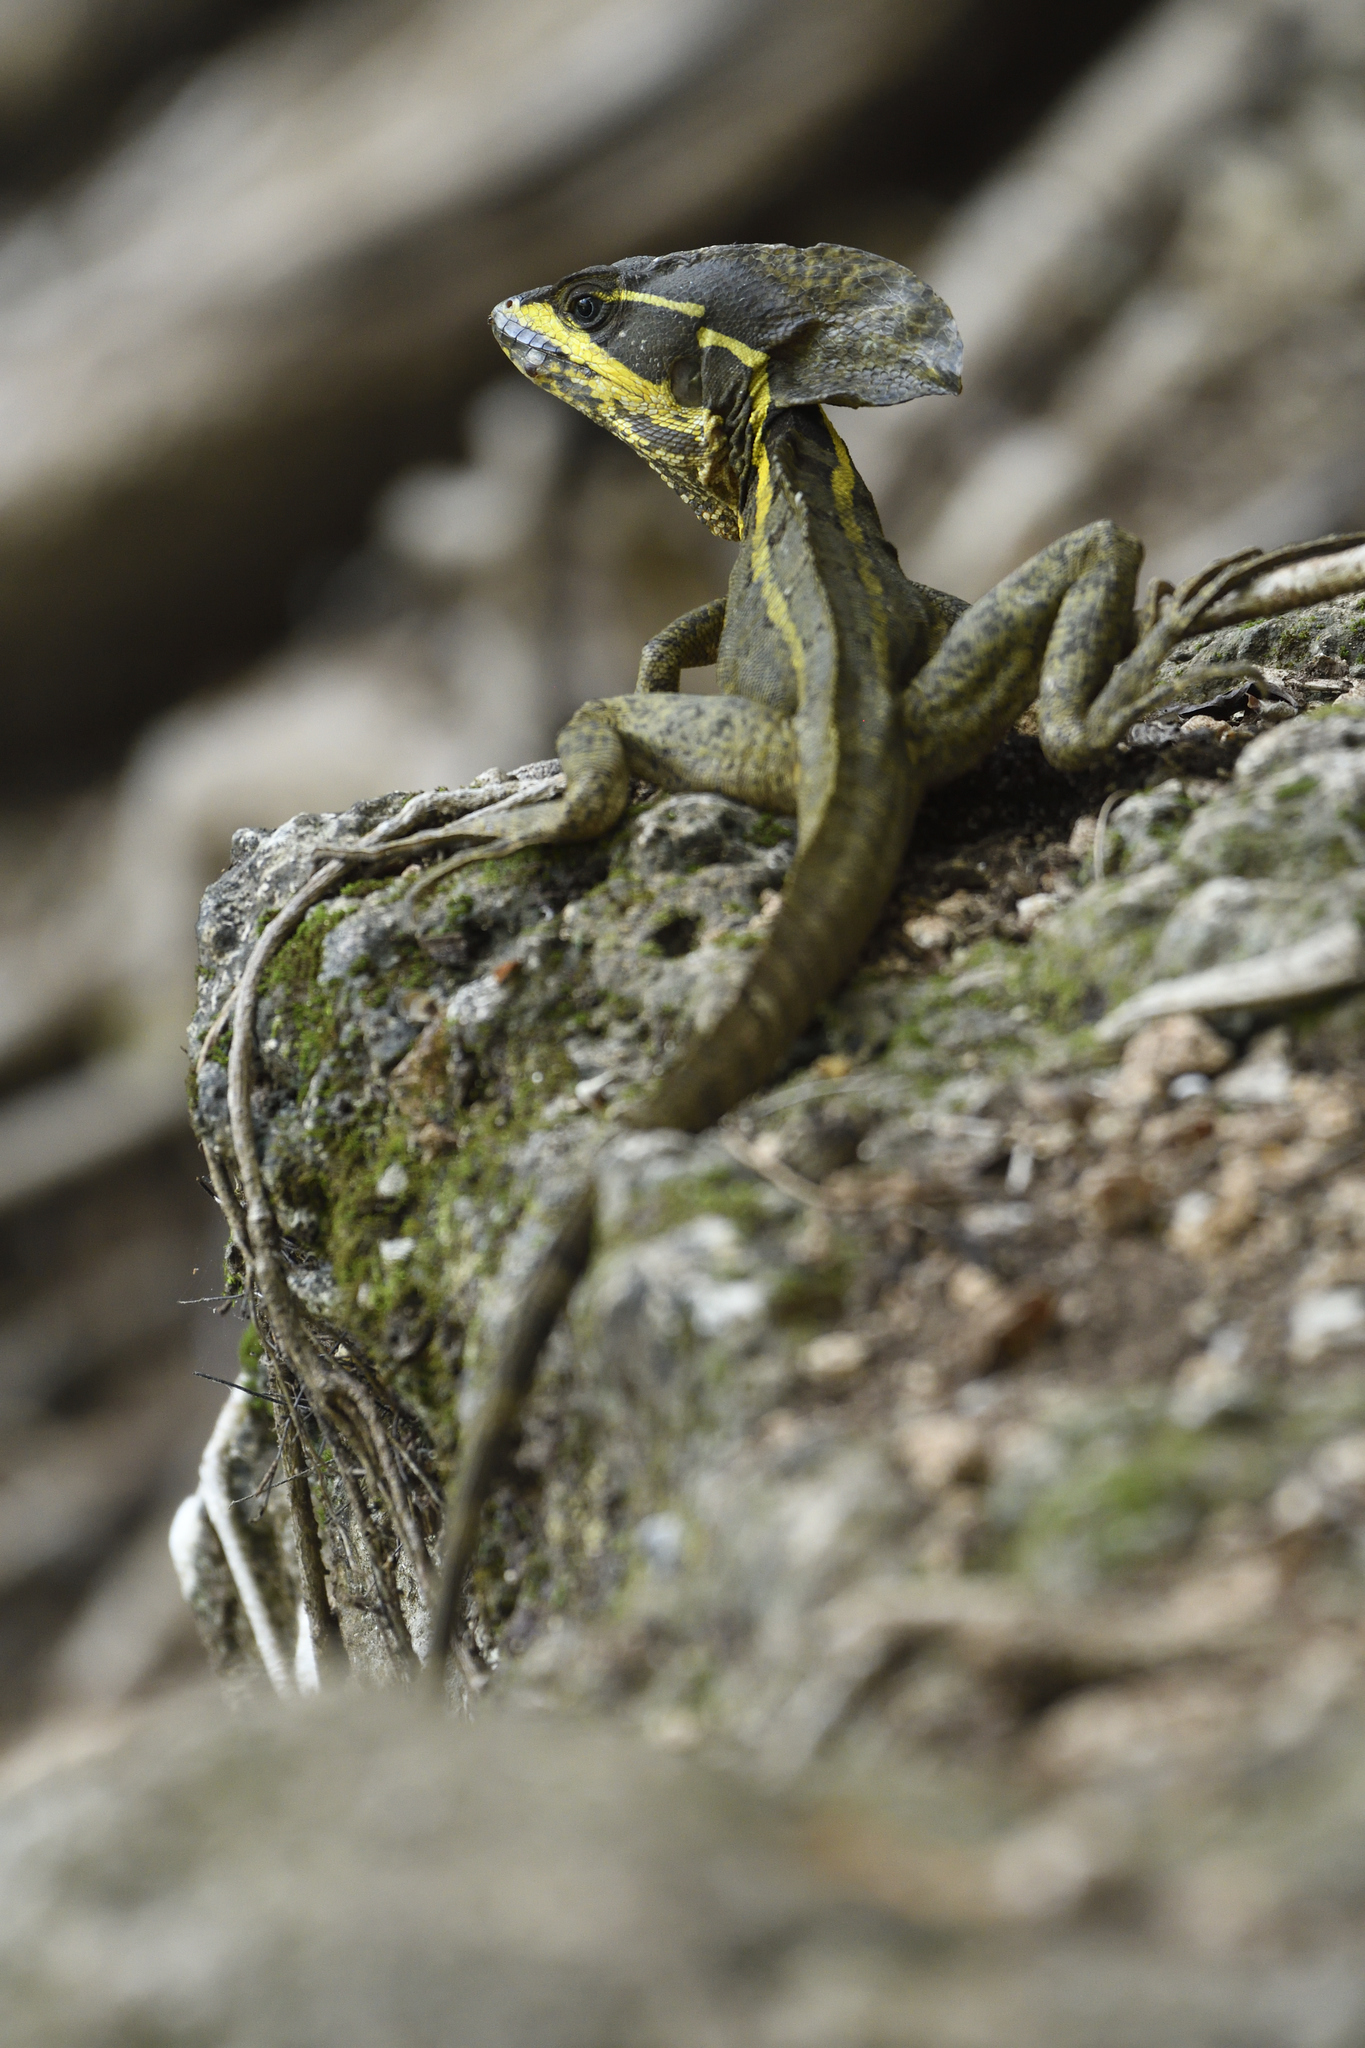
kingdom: Animalia
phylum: Chordata
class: Squamata
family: Corytophanidae
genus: Basiliscus
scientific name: Basiliscus vittatus
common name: Brown basilisk
